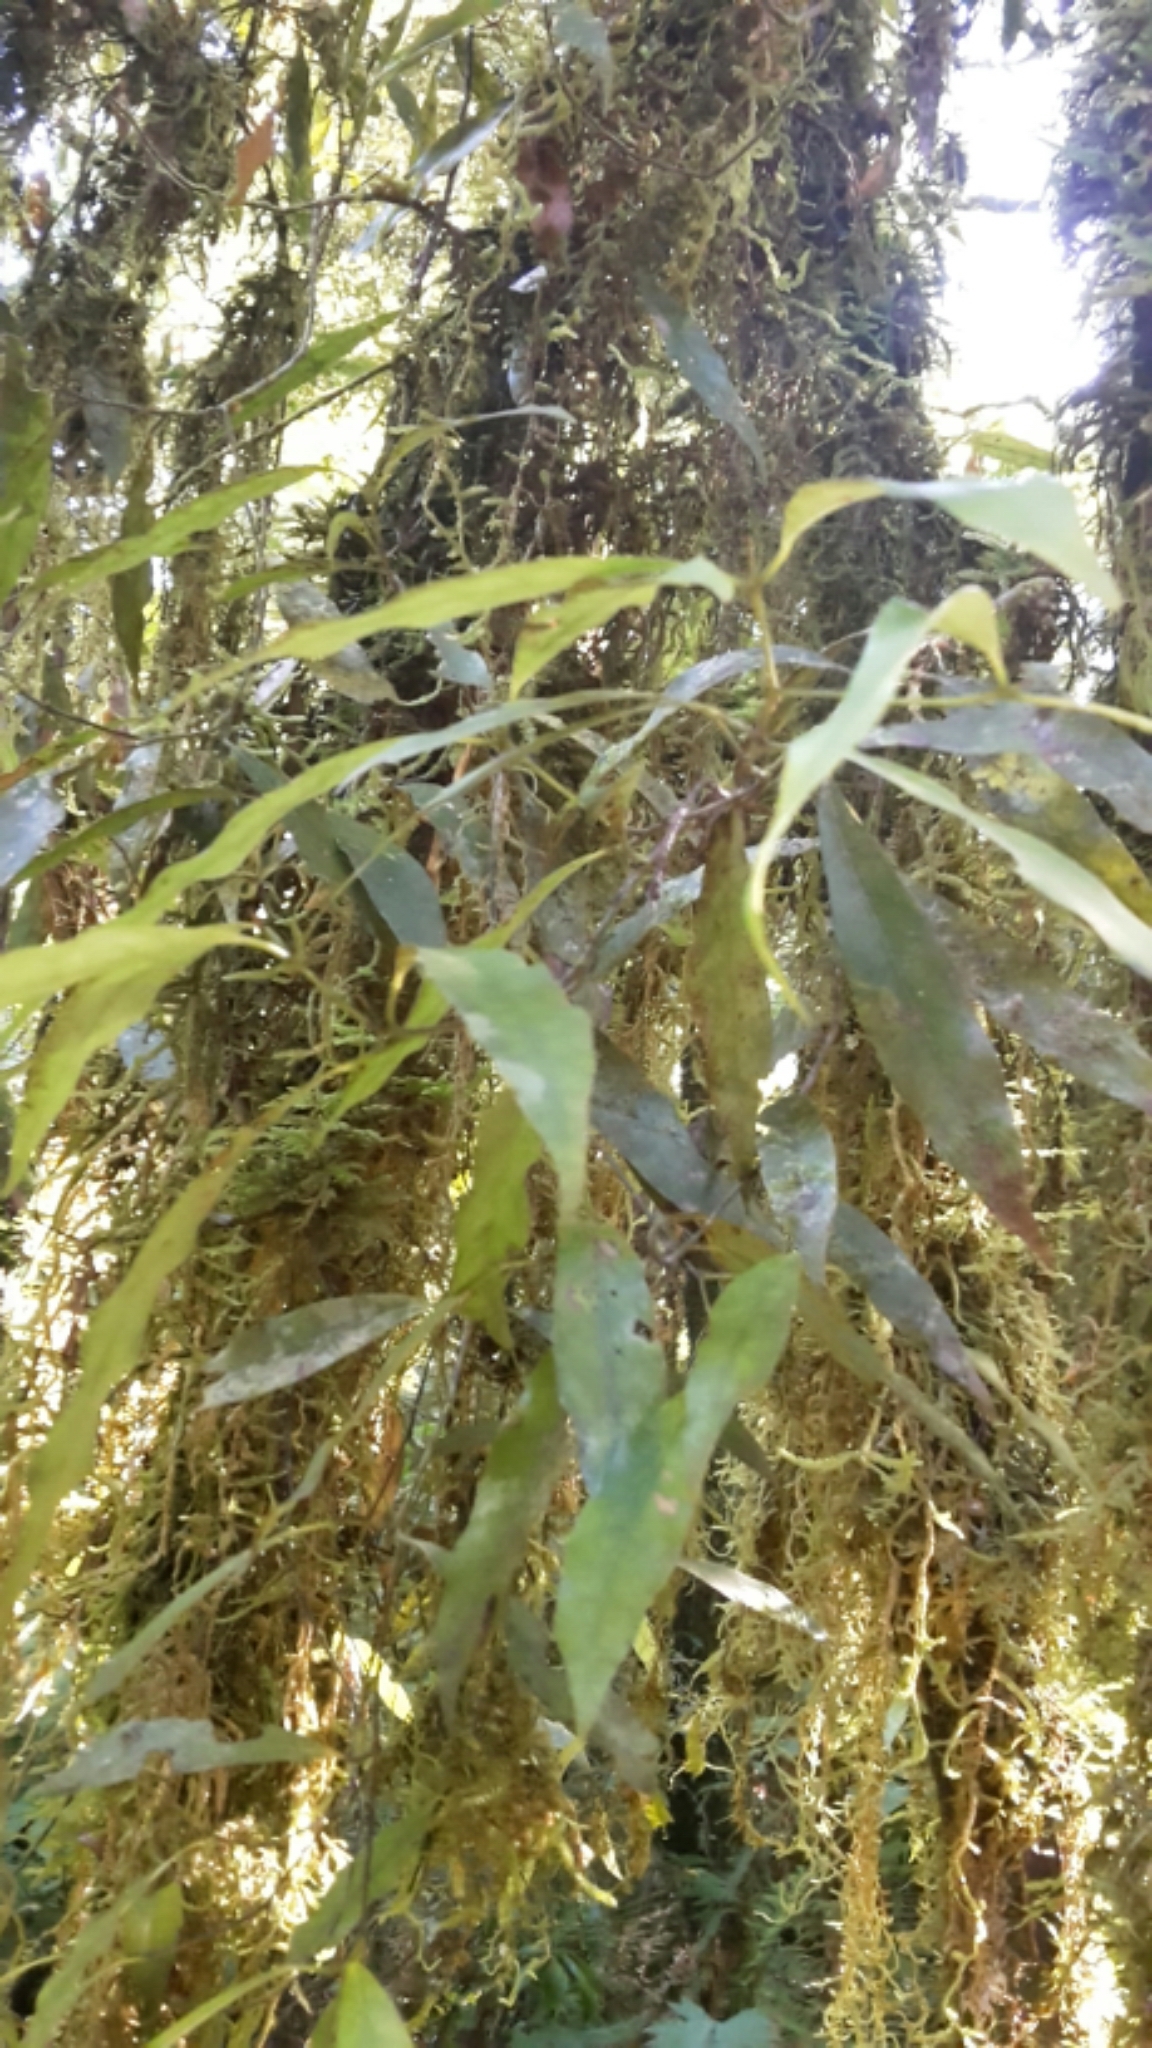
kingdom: Plantae
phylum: Tracheophyta
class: Magnoliopsida
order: Laurales
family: Lauraceae
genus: Beilschmiedia
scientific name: Beilschmiedia tawa
